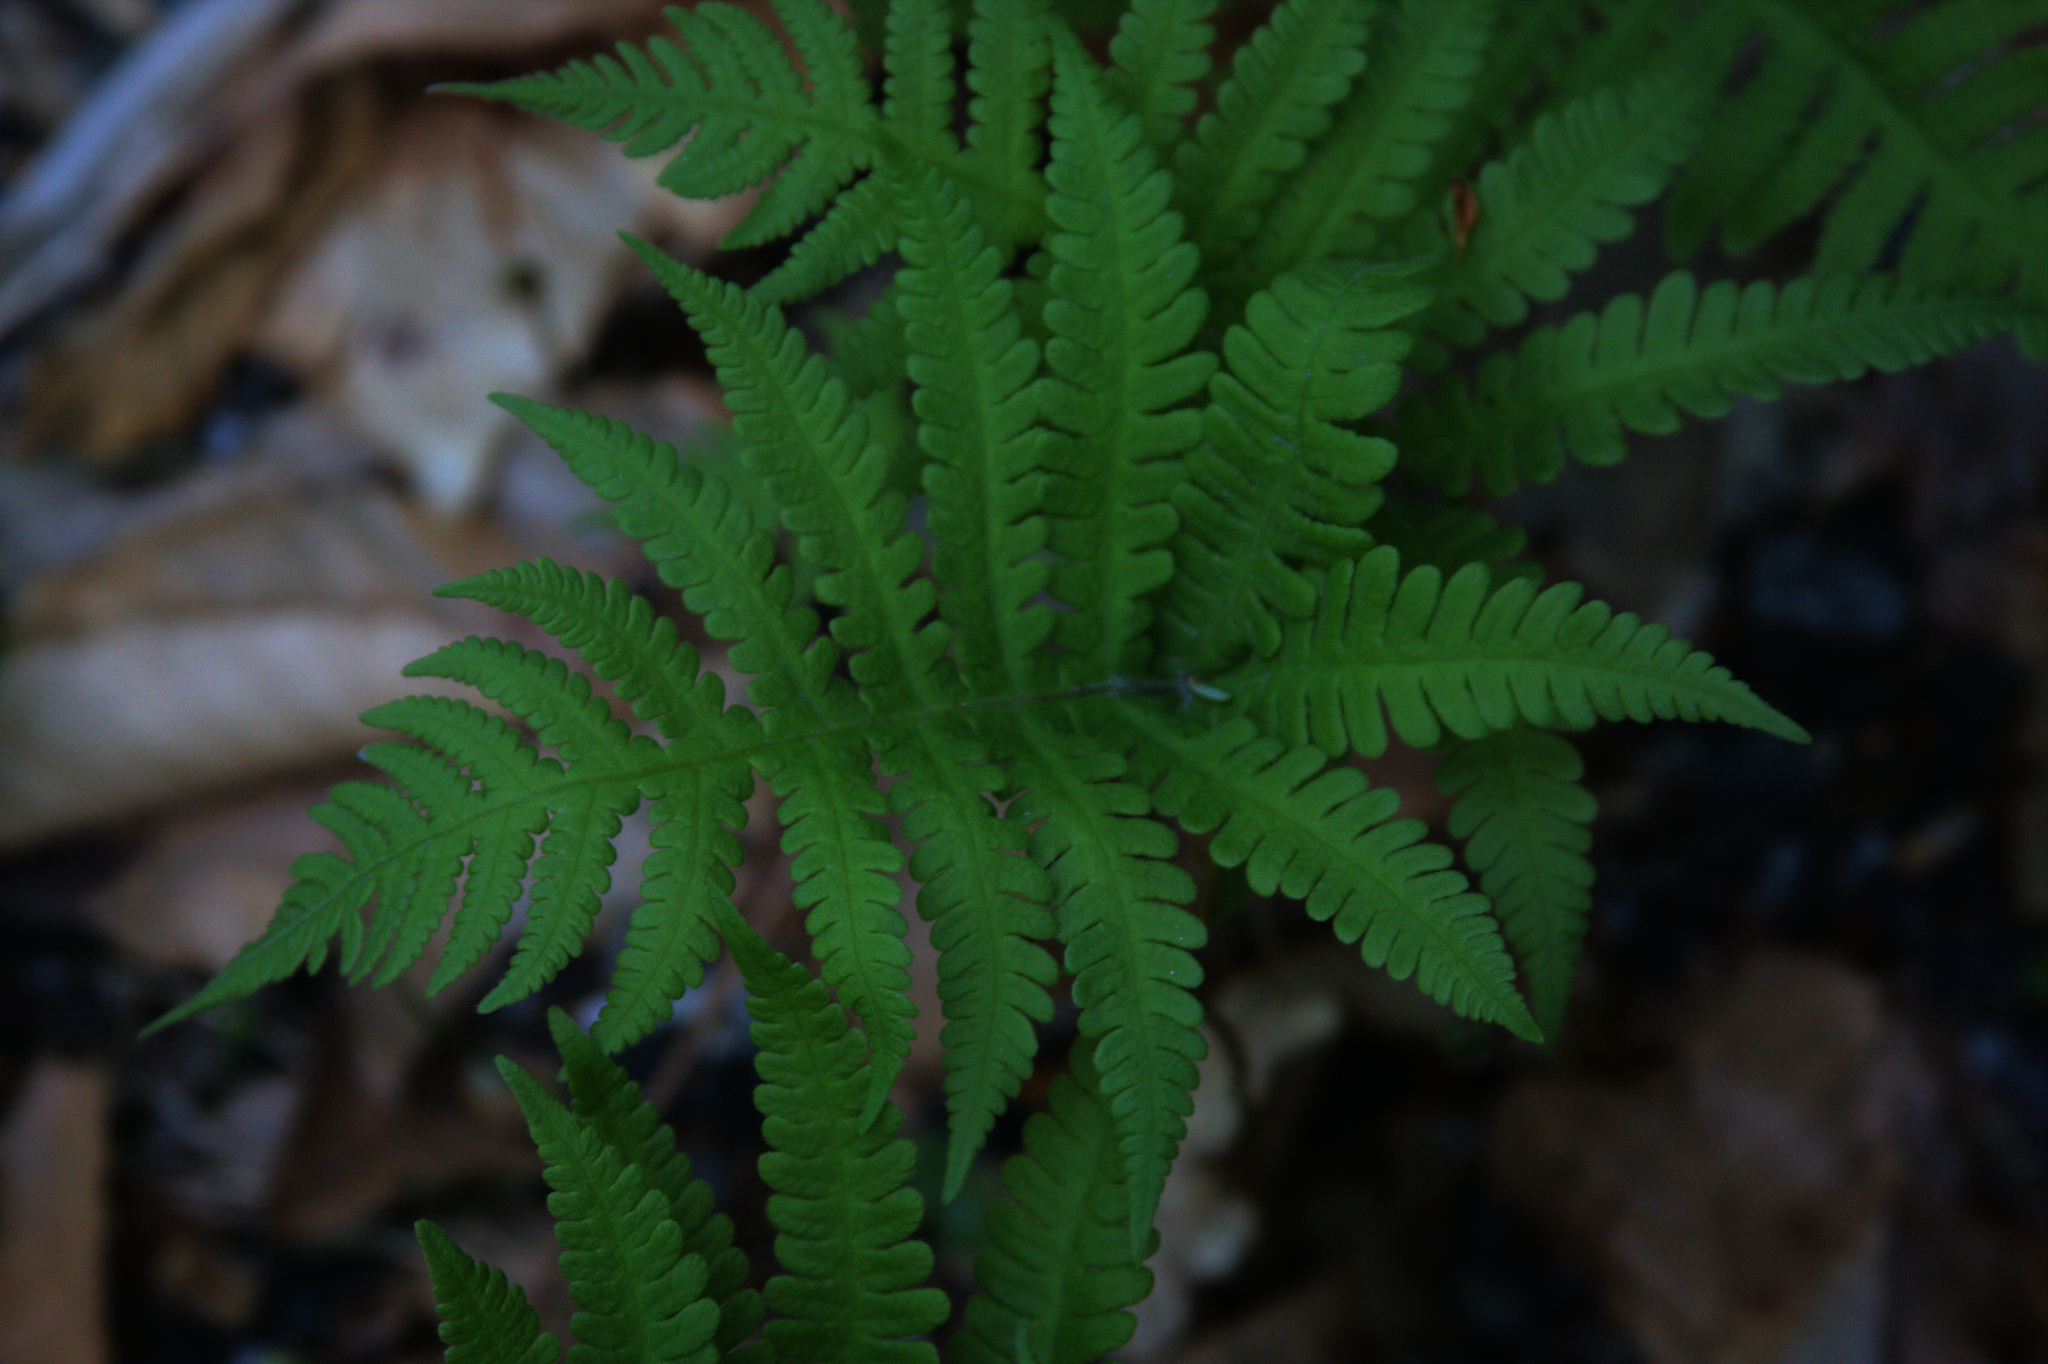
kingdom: Plantae
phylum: Tracheophyta
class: Polypodiopsida
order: Polypodiales
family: Thelypteridaceae
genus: Phegopteris
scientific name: Phegopteris connectilis
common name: Beech fern
